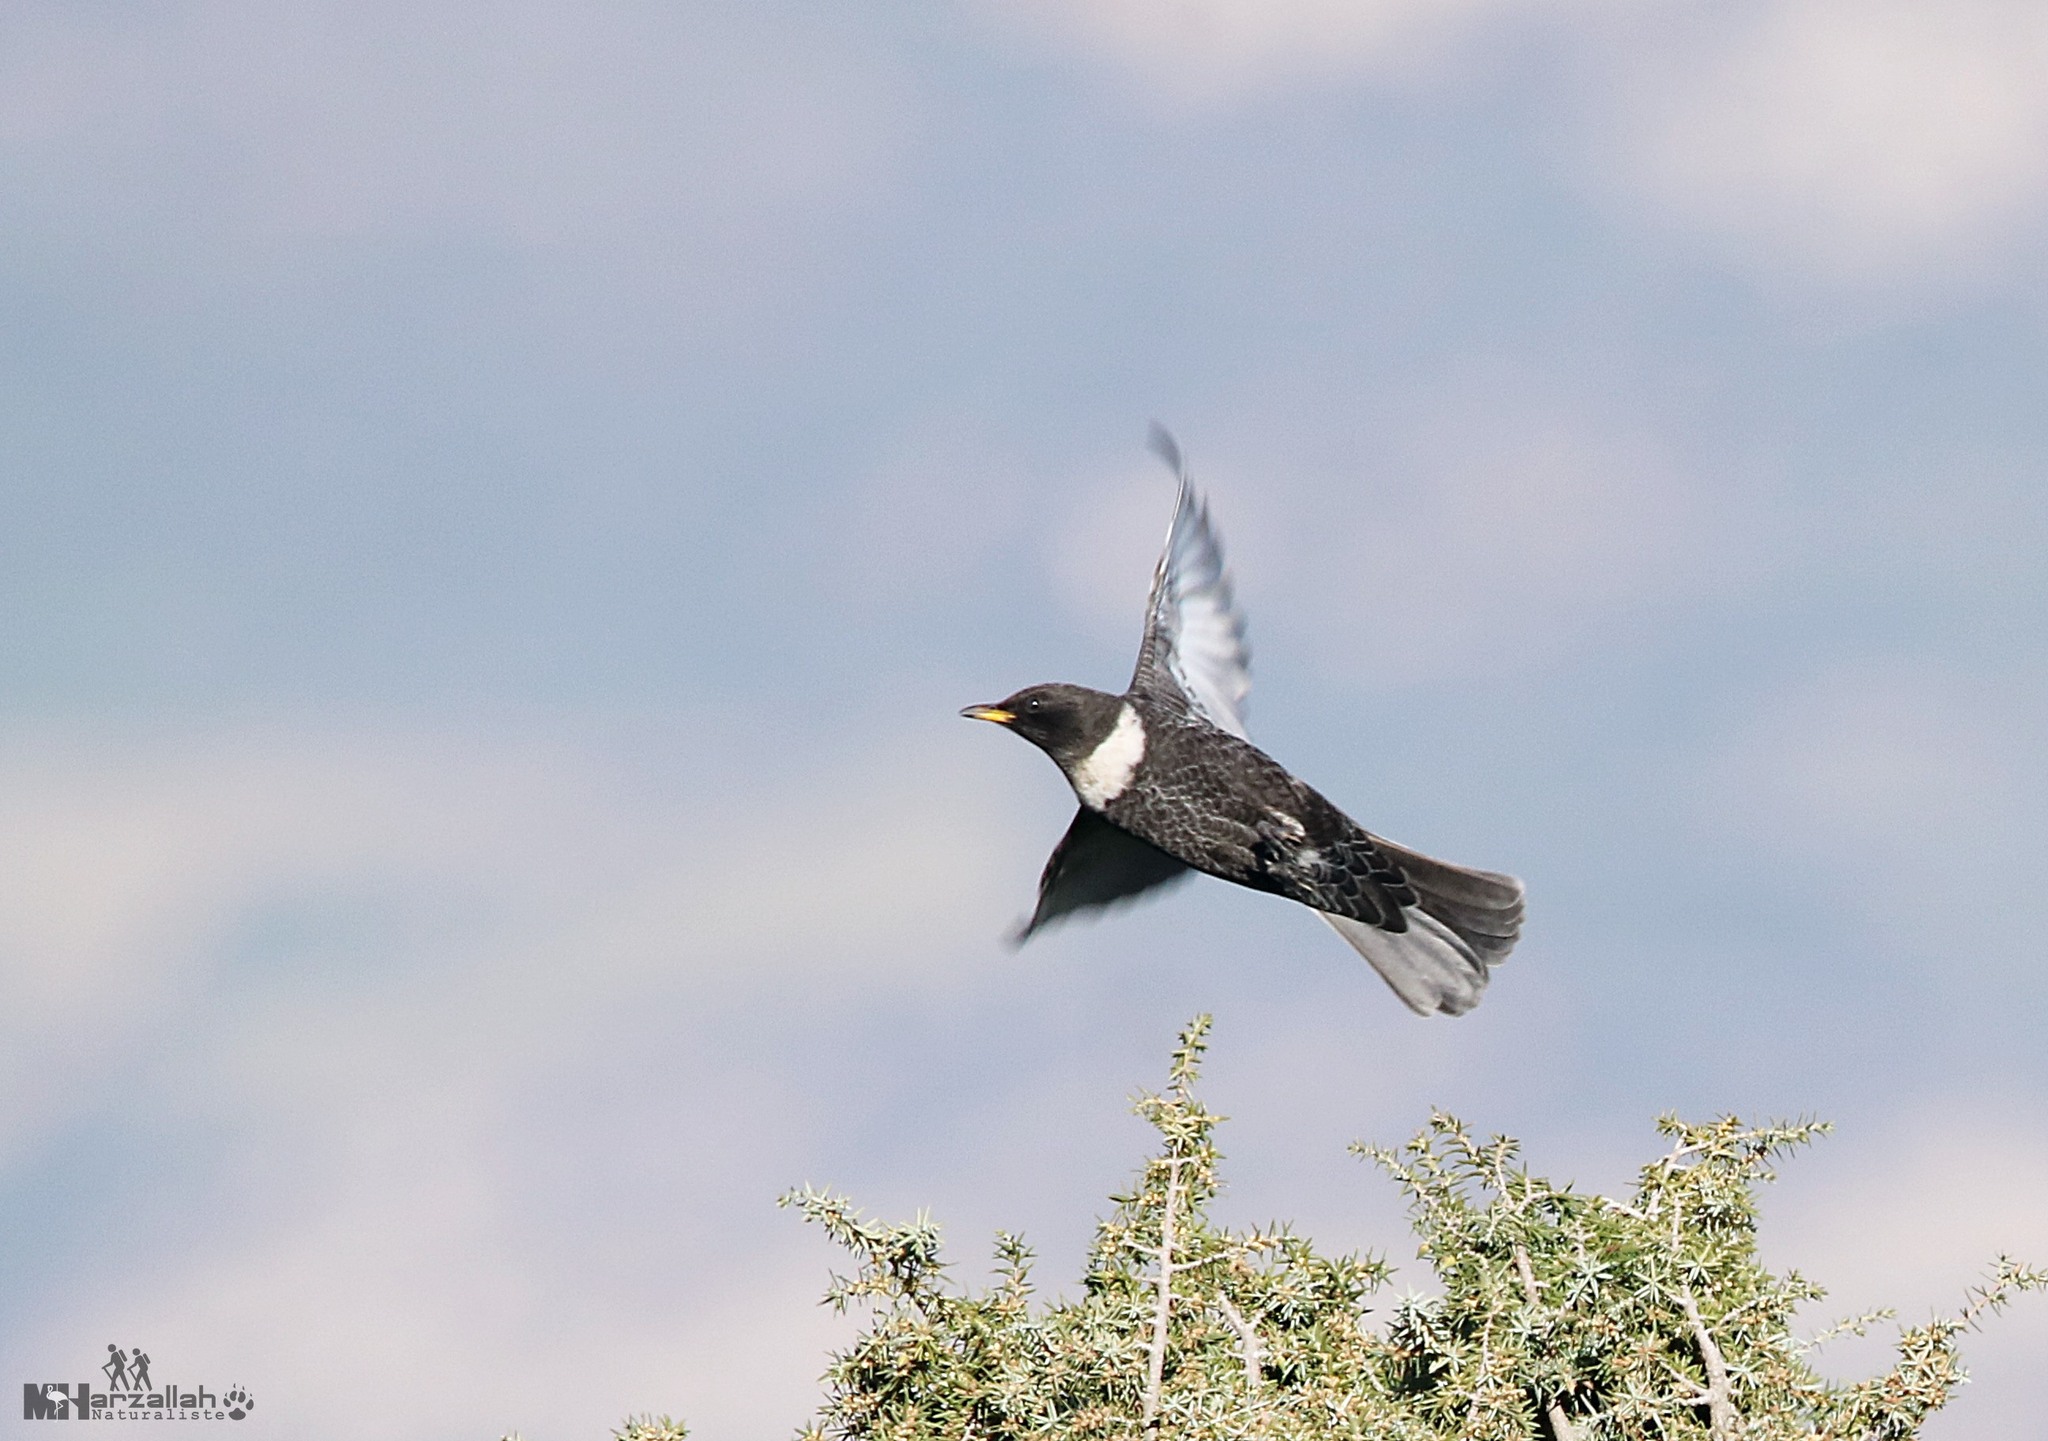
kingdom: Animalia
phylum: Chordata
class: Aves
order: Passeriformes
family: Turdidae
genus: Turdus
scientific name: Turdus torquatus
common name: Ring ouzel
